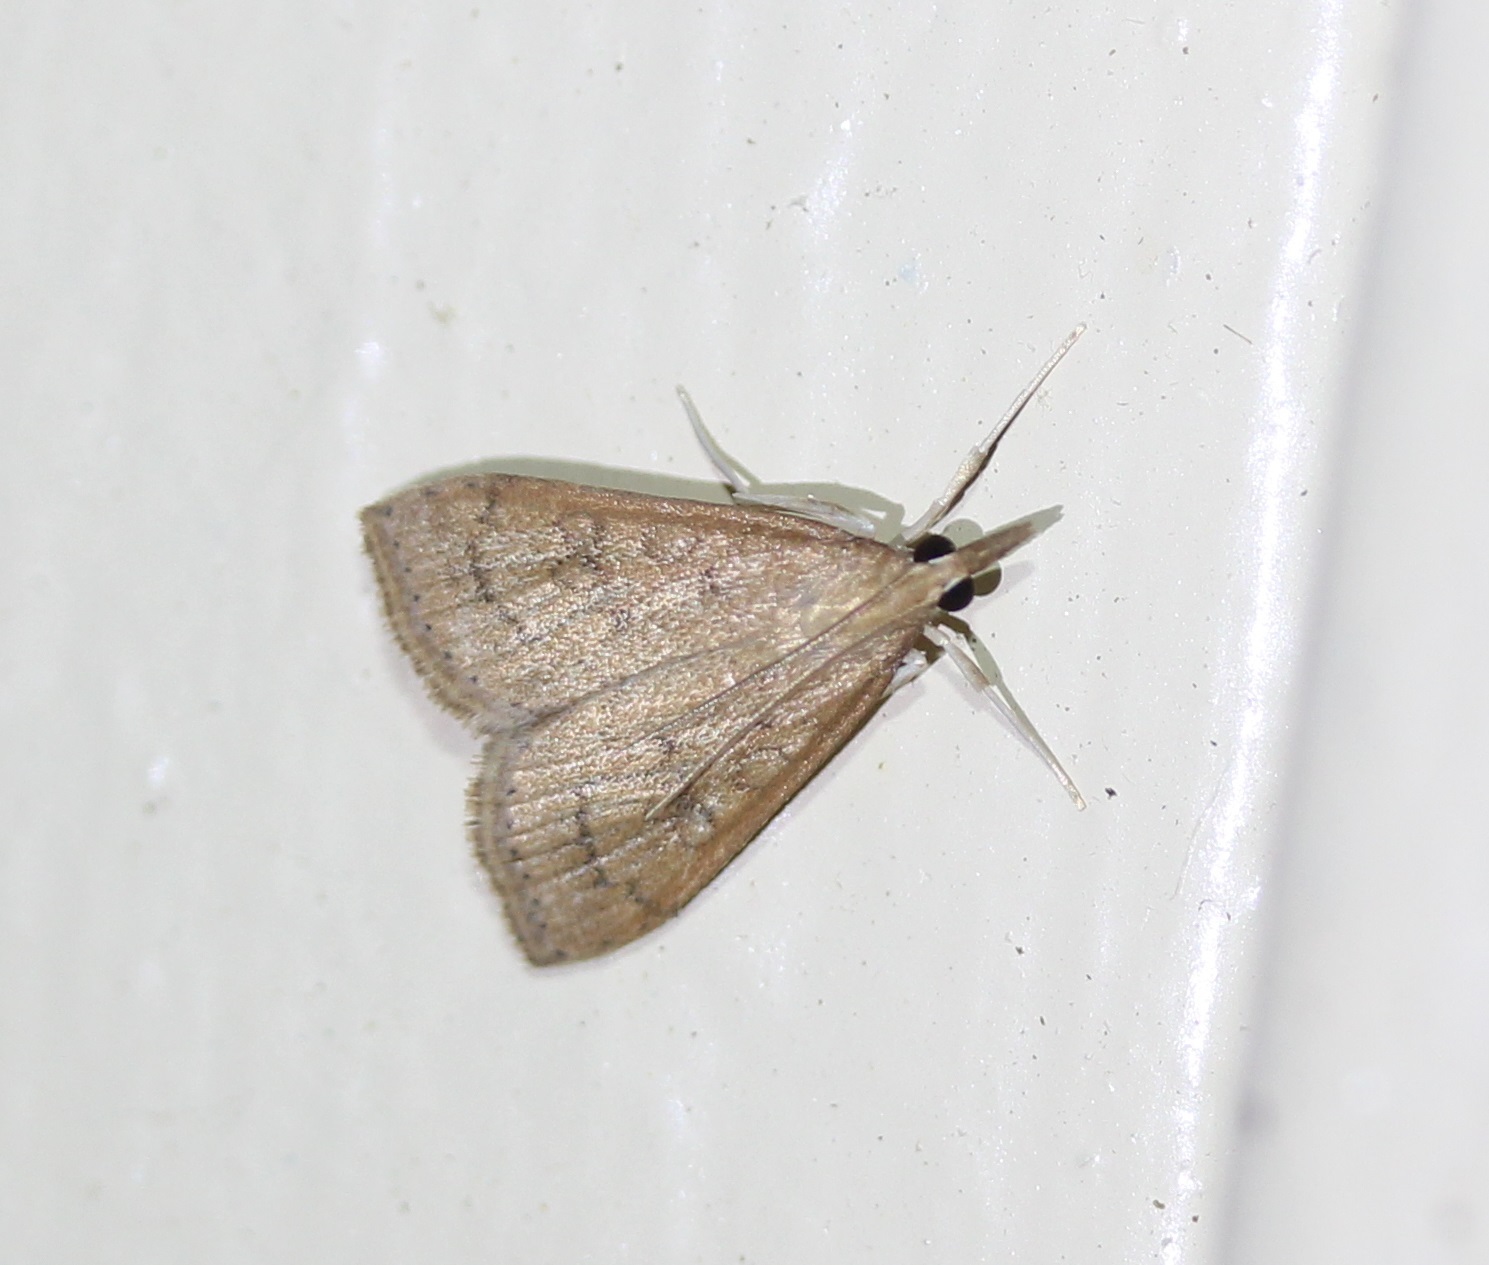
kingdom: Animalia
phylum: Arthropoda
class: Insecta
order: Lepidoptera
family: Crambidae
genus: Udea
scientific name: Udea rubigalis
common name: Celery leaftier moth
